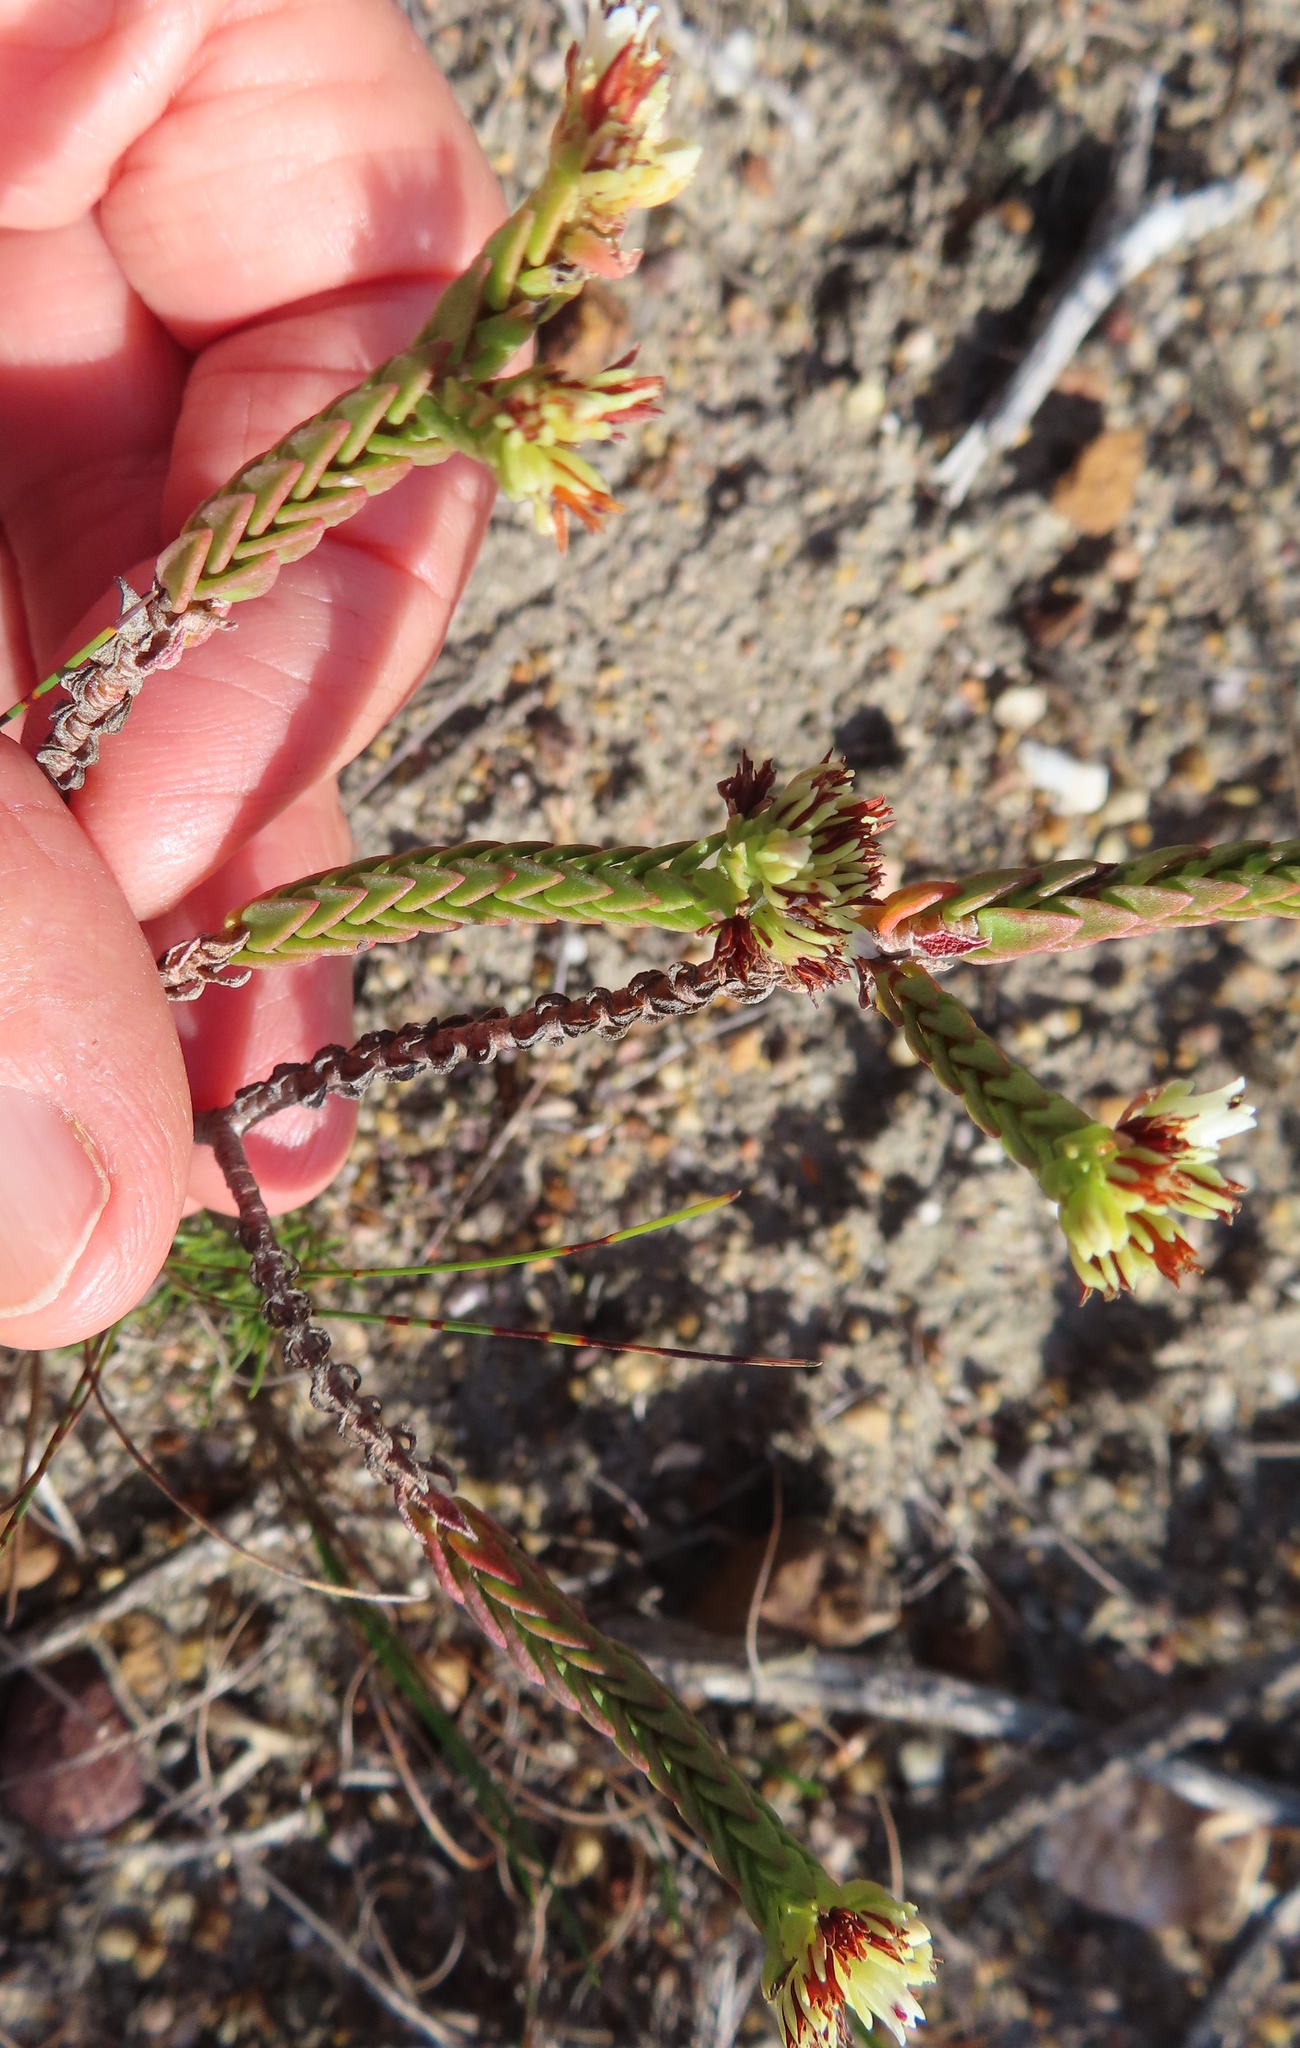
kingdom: Plantae
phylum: Tracheophyta
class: Magnoliopsida
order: Saxifragales
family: Crassulaceae
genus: Crassula
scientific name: Crassula ericoides
